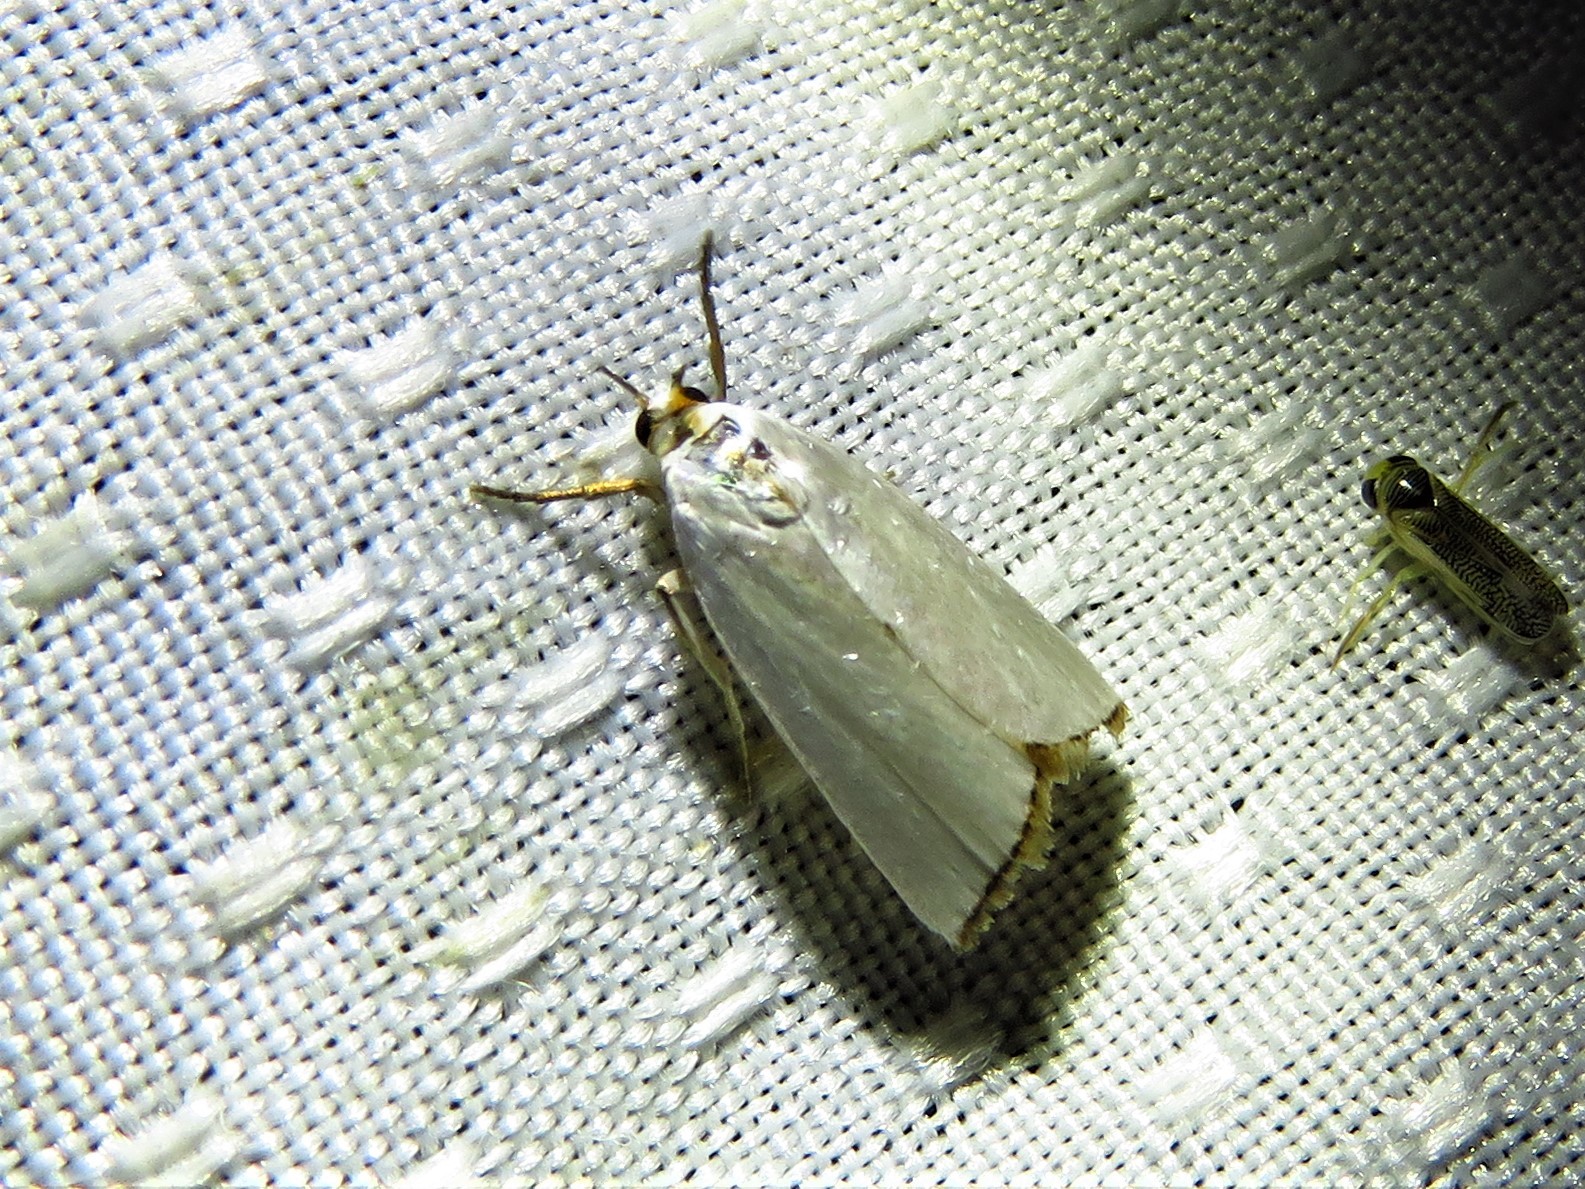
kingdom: Animalia
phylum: Arthropoda
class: Insecta
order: Lepidoptera
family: Crambidae
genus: Argyria
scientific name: Argyria nivalis
